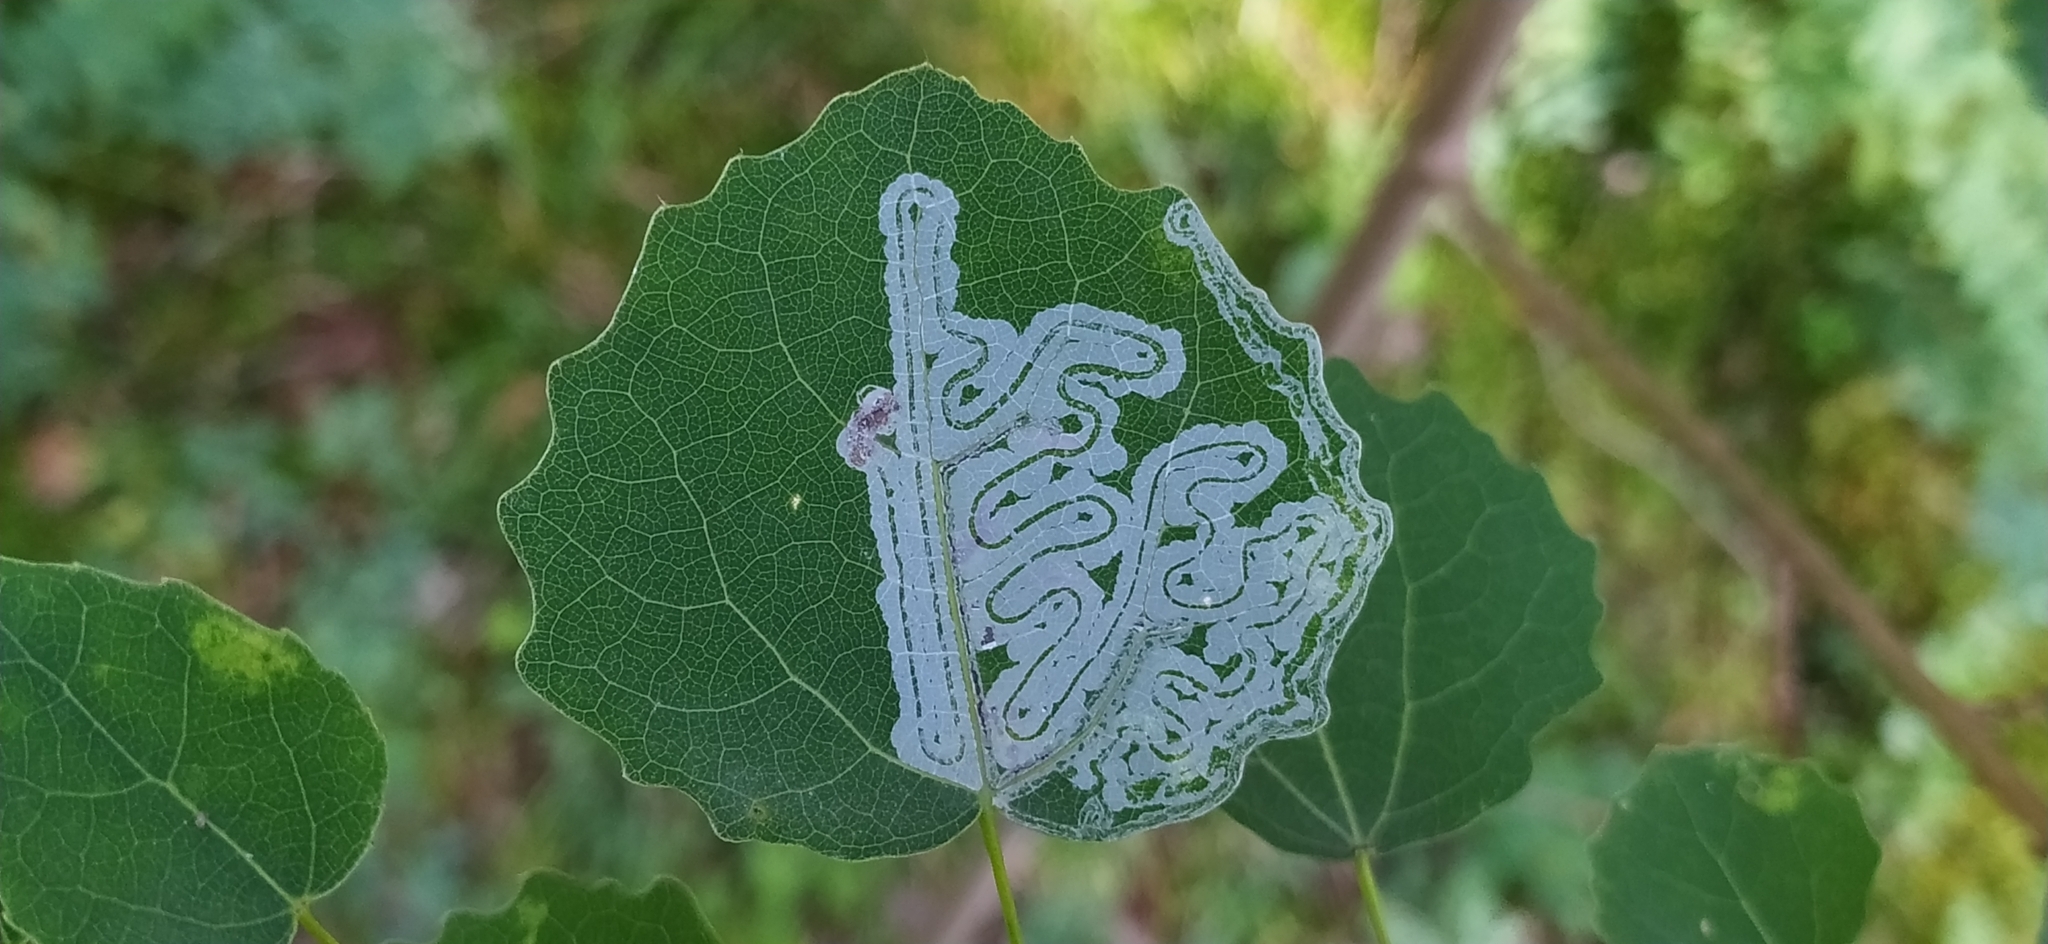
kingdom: Animalia
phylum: Arthropoda
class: Insecta
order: Lepidoptera
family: Gracillariidae
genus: Phyllocnistis
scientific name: Phyllocnistis labyrinthella
